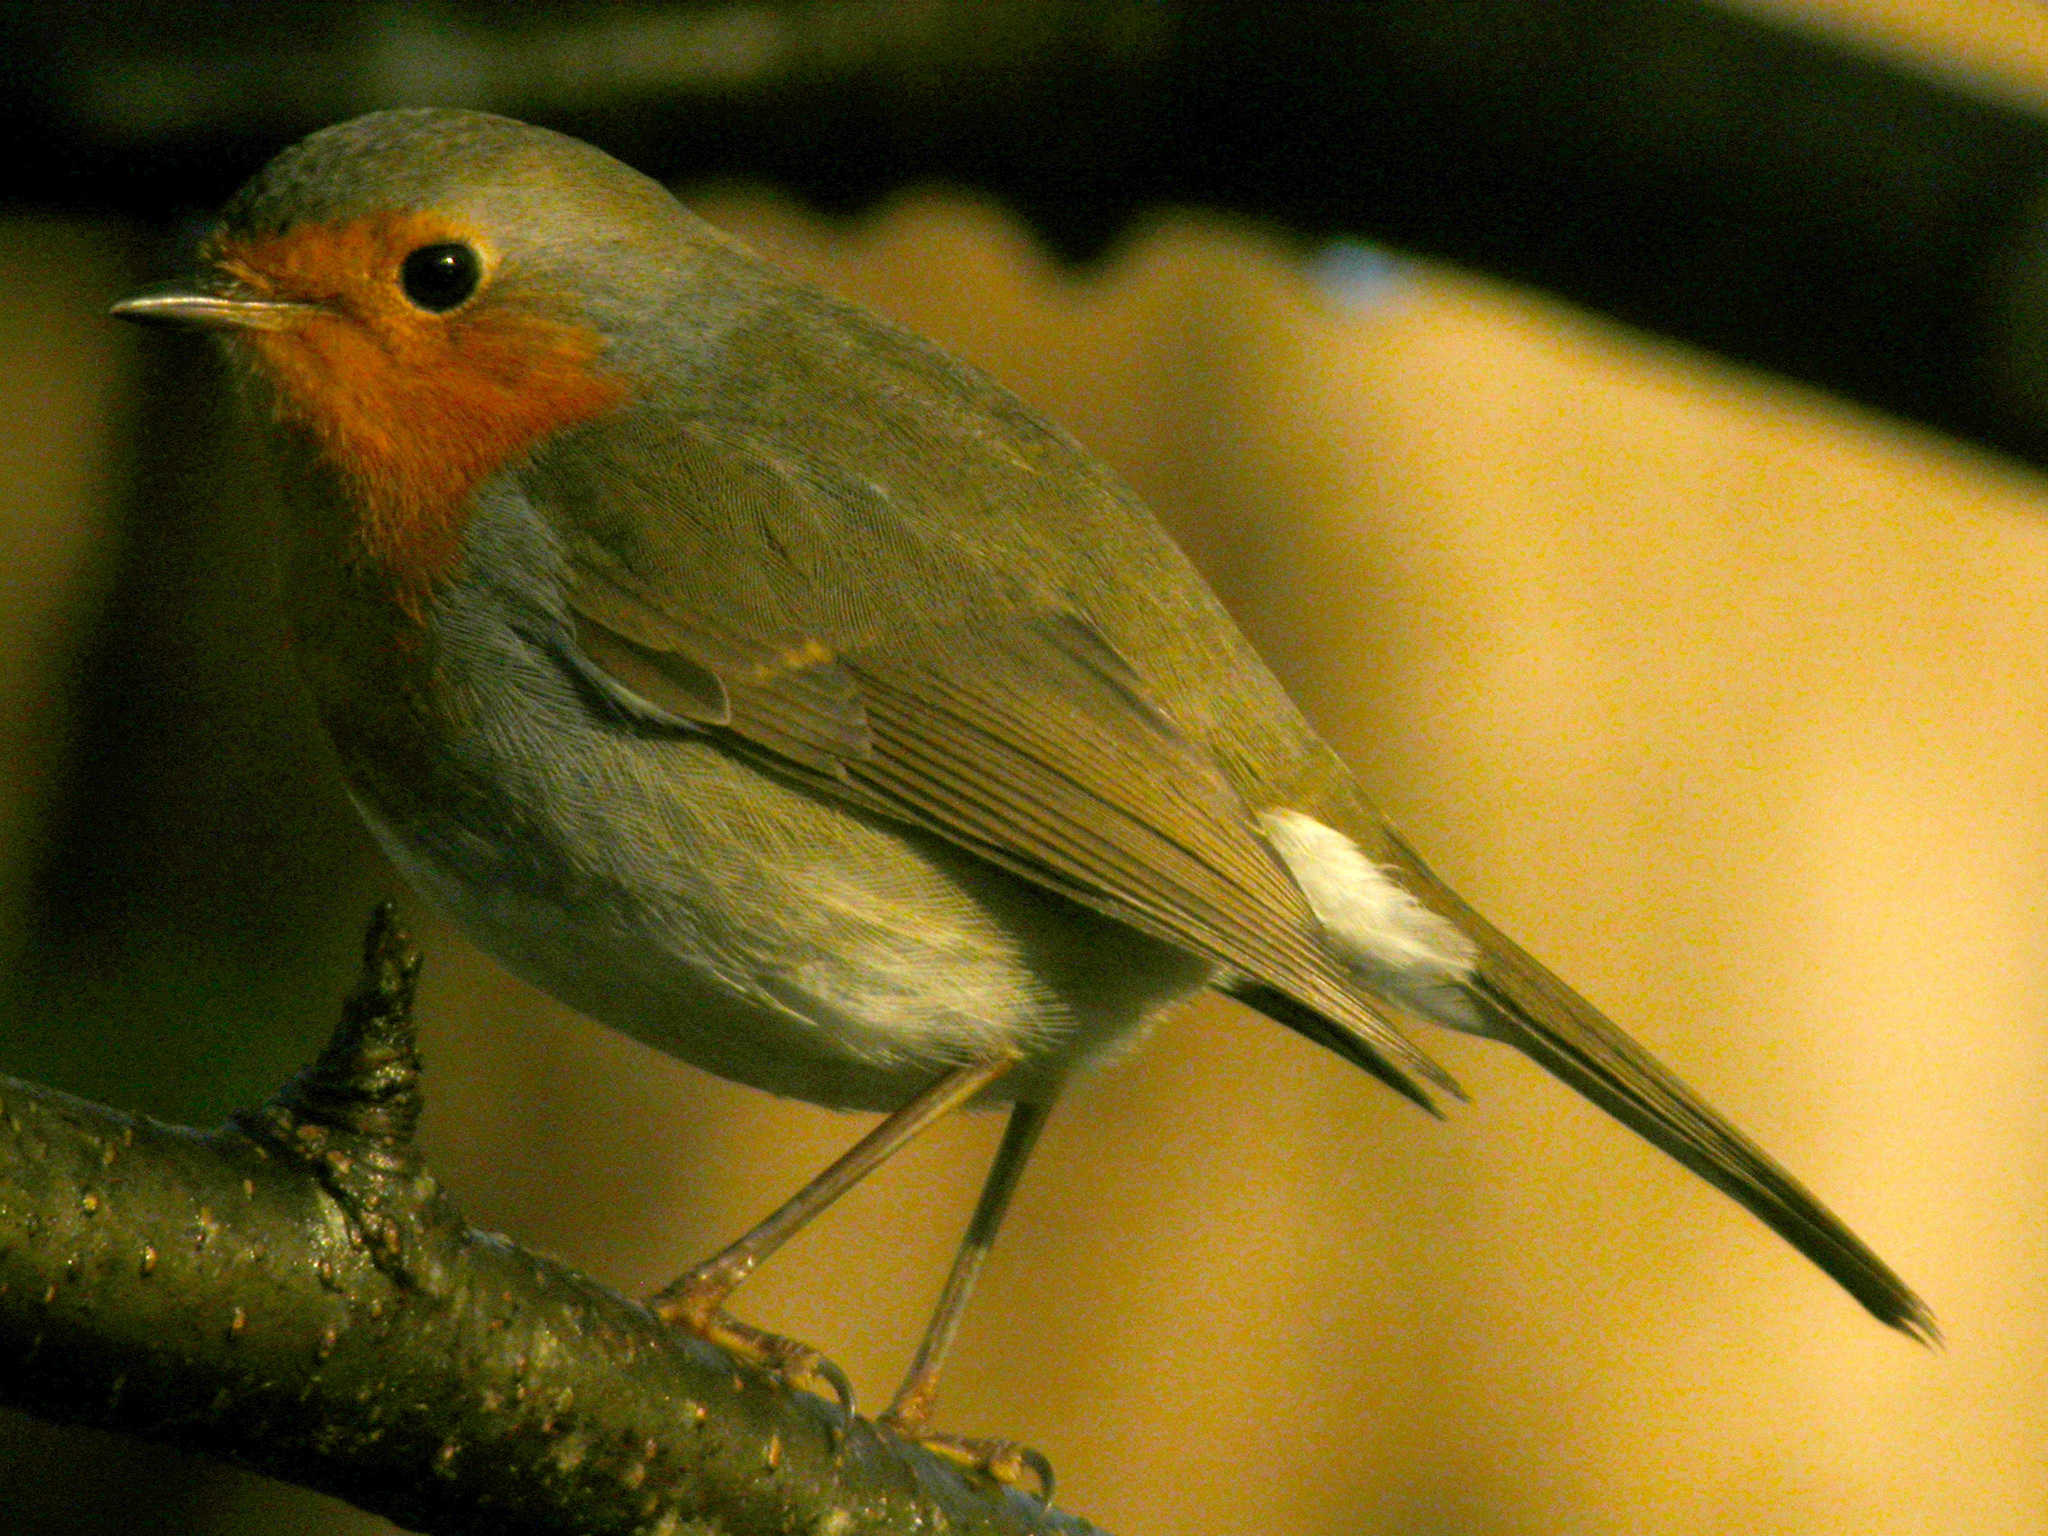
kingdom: Animalia
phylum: Chordata
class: Aves
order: Passeriformes
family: Muscicapidae
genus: Erithacus
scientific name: Erithacus rubecula
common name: European robin
